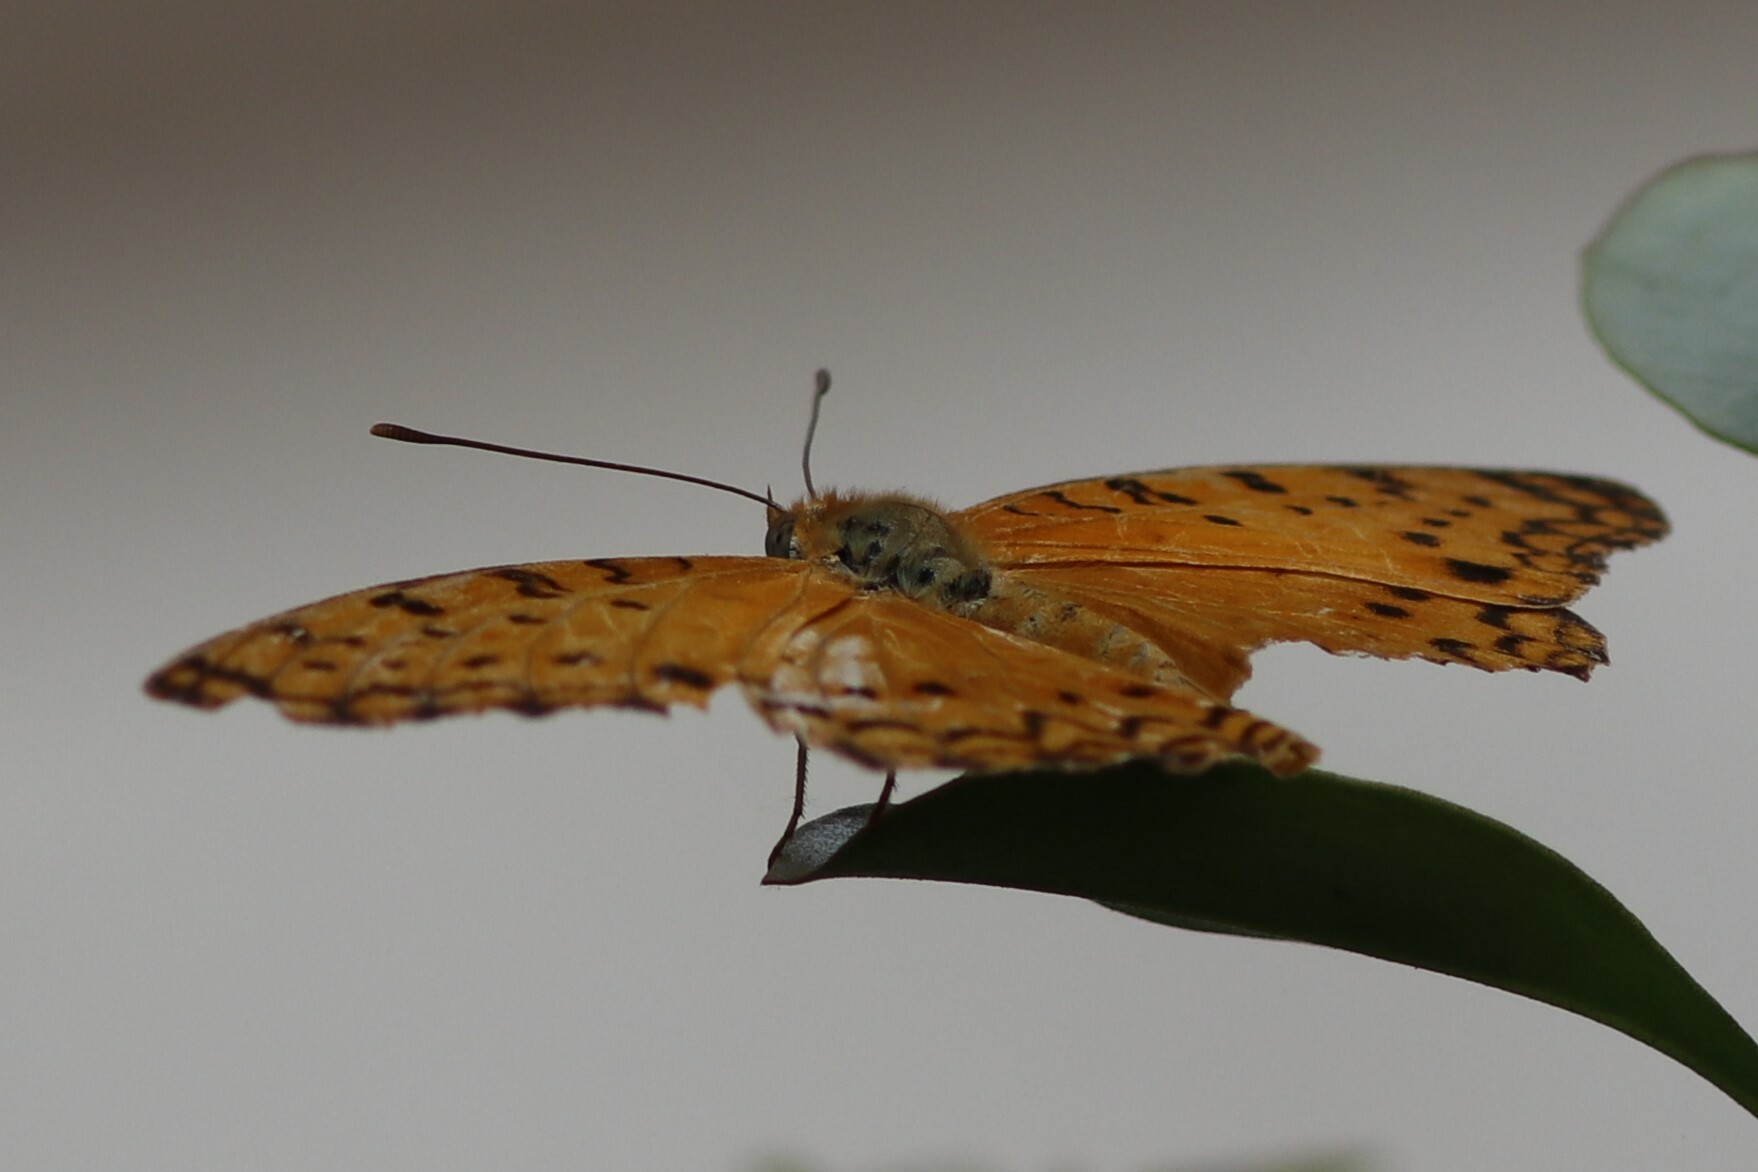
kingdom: Animalia
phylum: Arthropoda
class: Insecta
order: Lepidoptera
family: Nymphalidae
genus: Phalanta
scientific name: Phalanta phalantha
